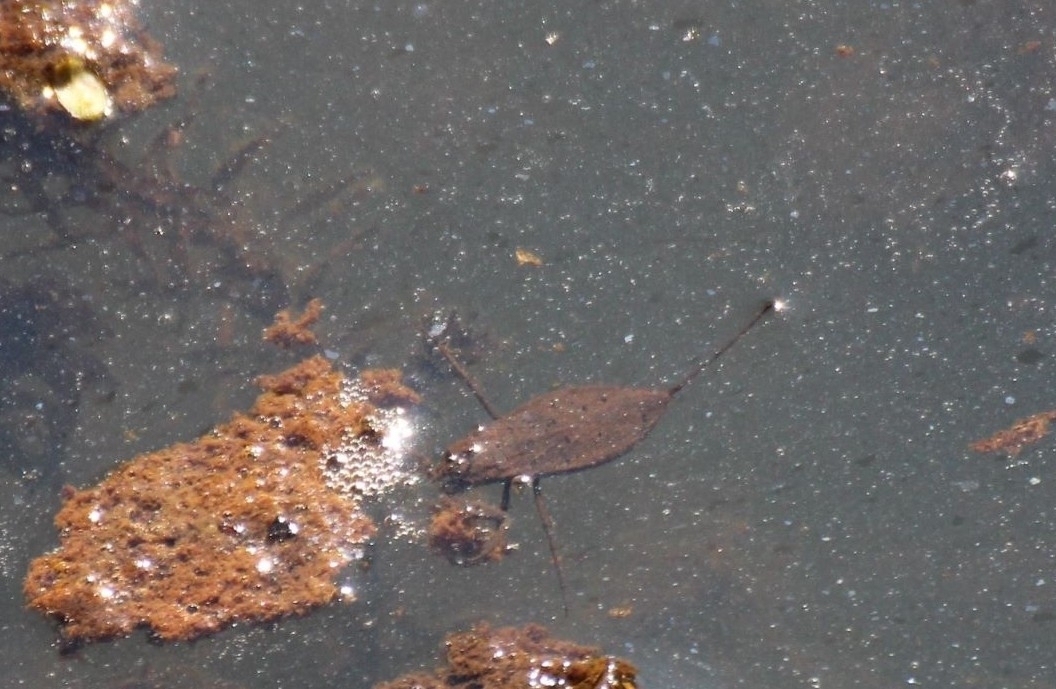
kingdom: Animalia
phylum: Arthropoda
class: Insecta
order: Hemiptera
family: Nepidae
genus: Nepa
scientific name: Nepa cinerea
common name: Water scorpion
